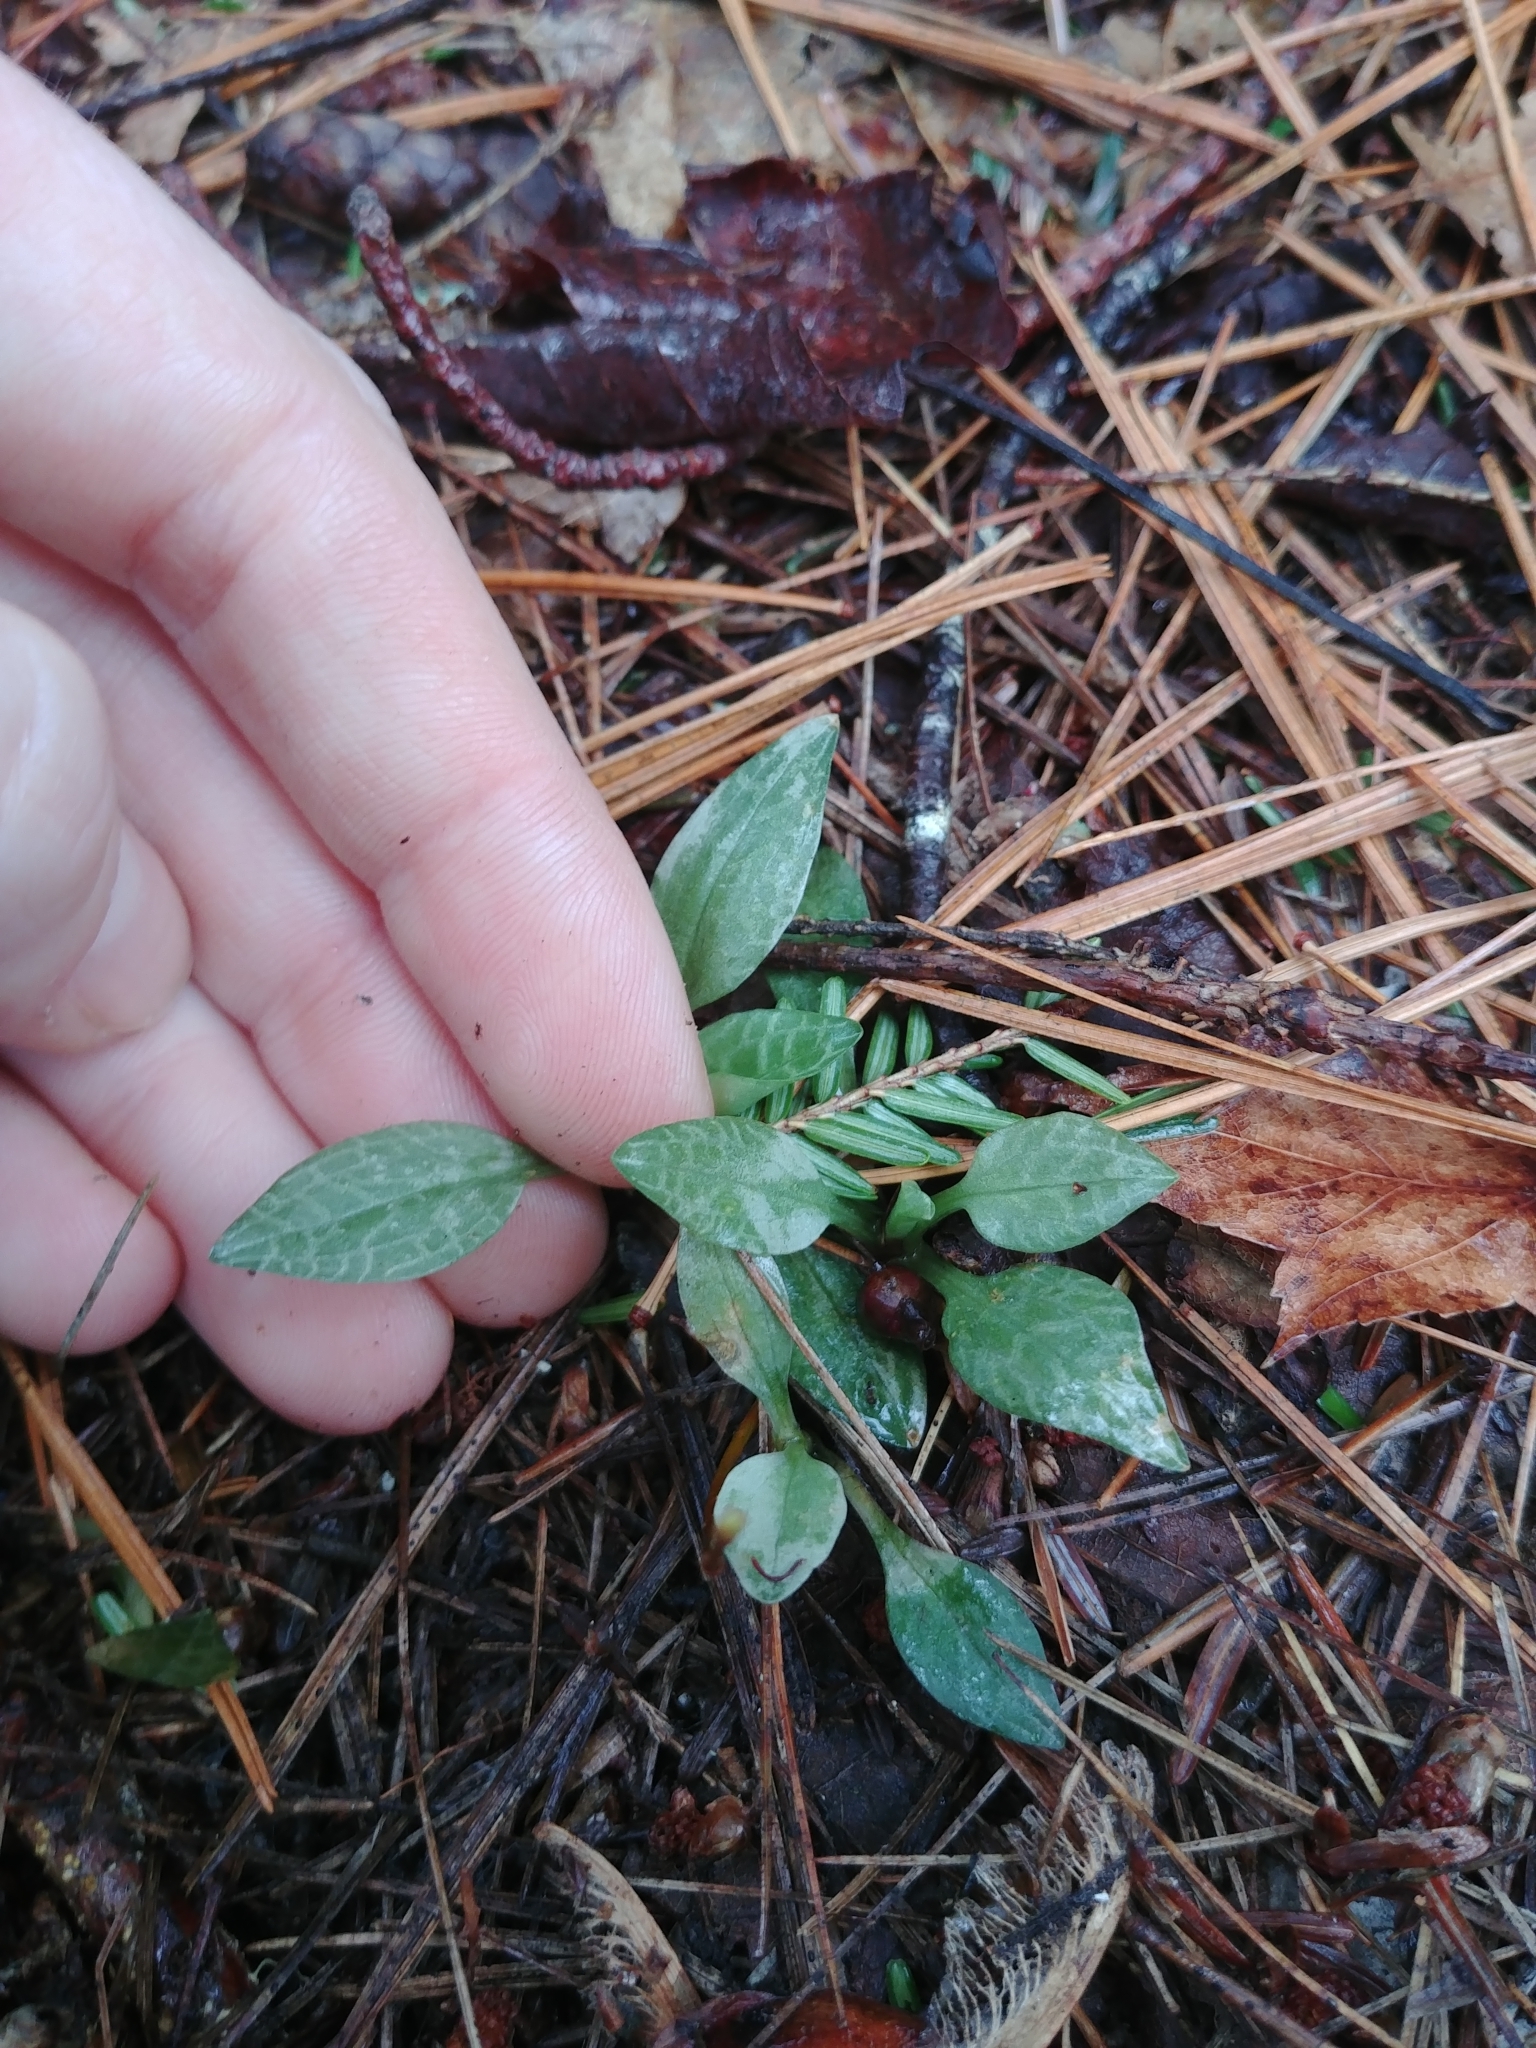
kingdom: Plantae
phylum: Tracheophyta
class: Liliopsida
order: Asparagales
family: Orchidaceae
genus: Goodyera
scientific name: Goodyera tesselata
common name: Checkered rattlesnake-plantain
